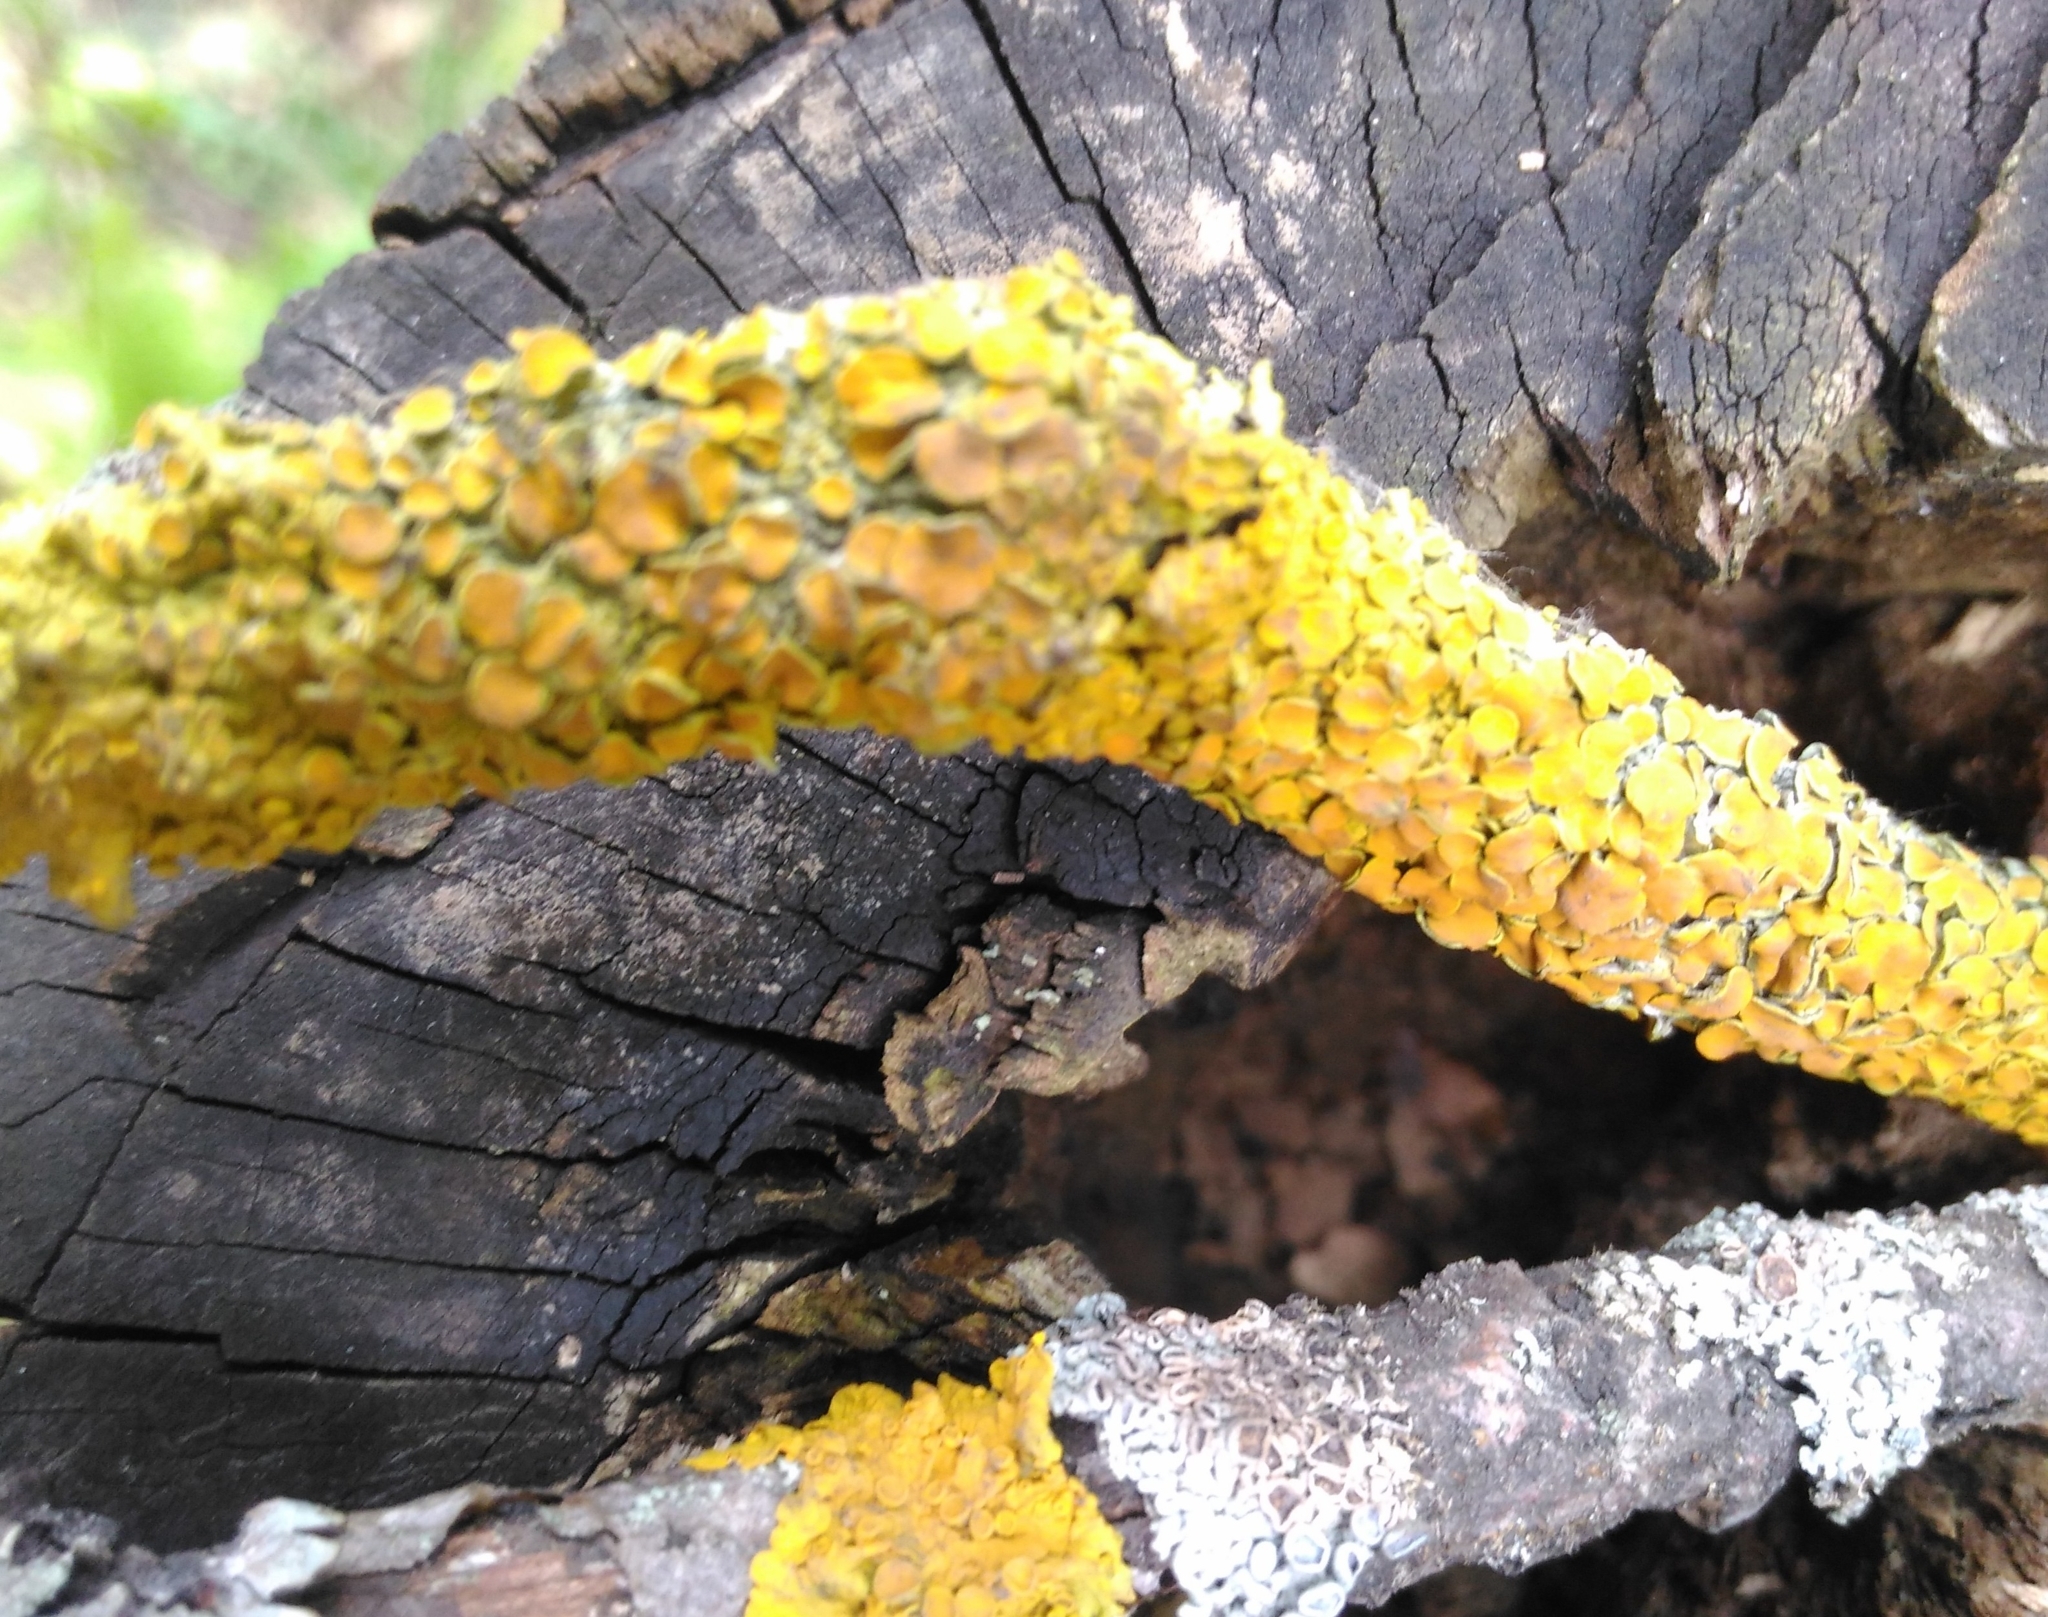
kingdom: Fungi
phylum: Ascomycota
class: Lecanoromycetes
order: Teloschistales
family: Teloschistaceae
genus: Xanthoria
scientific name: Xanthoria parietina
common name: Common orange lichen
